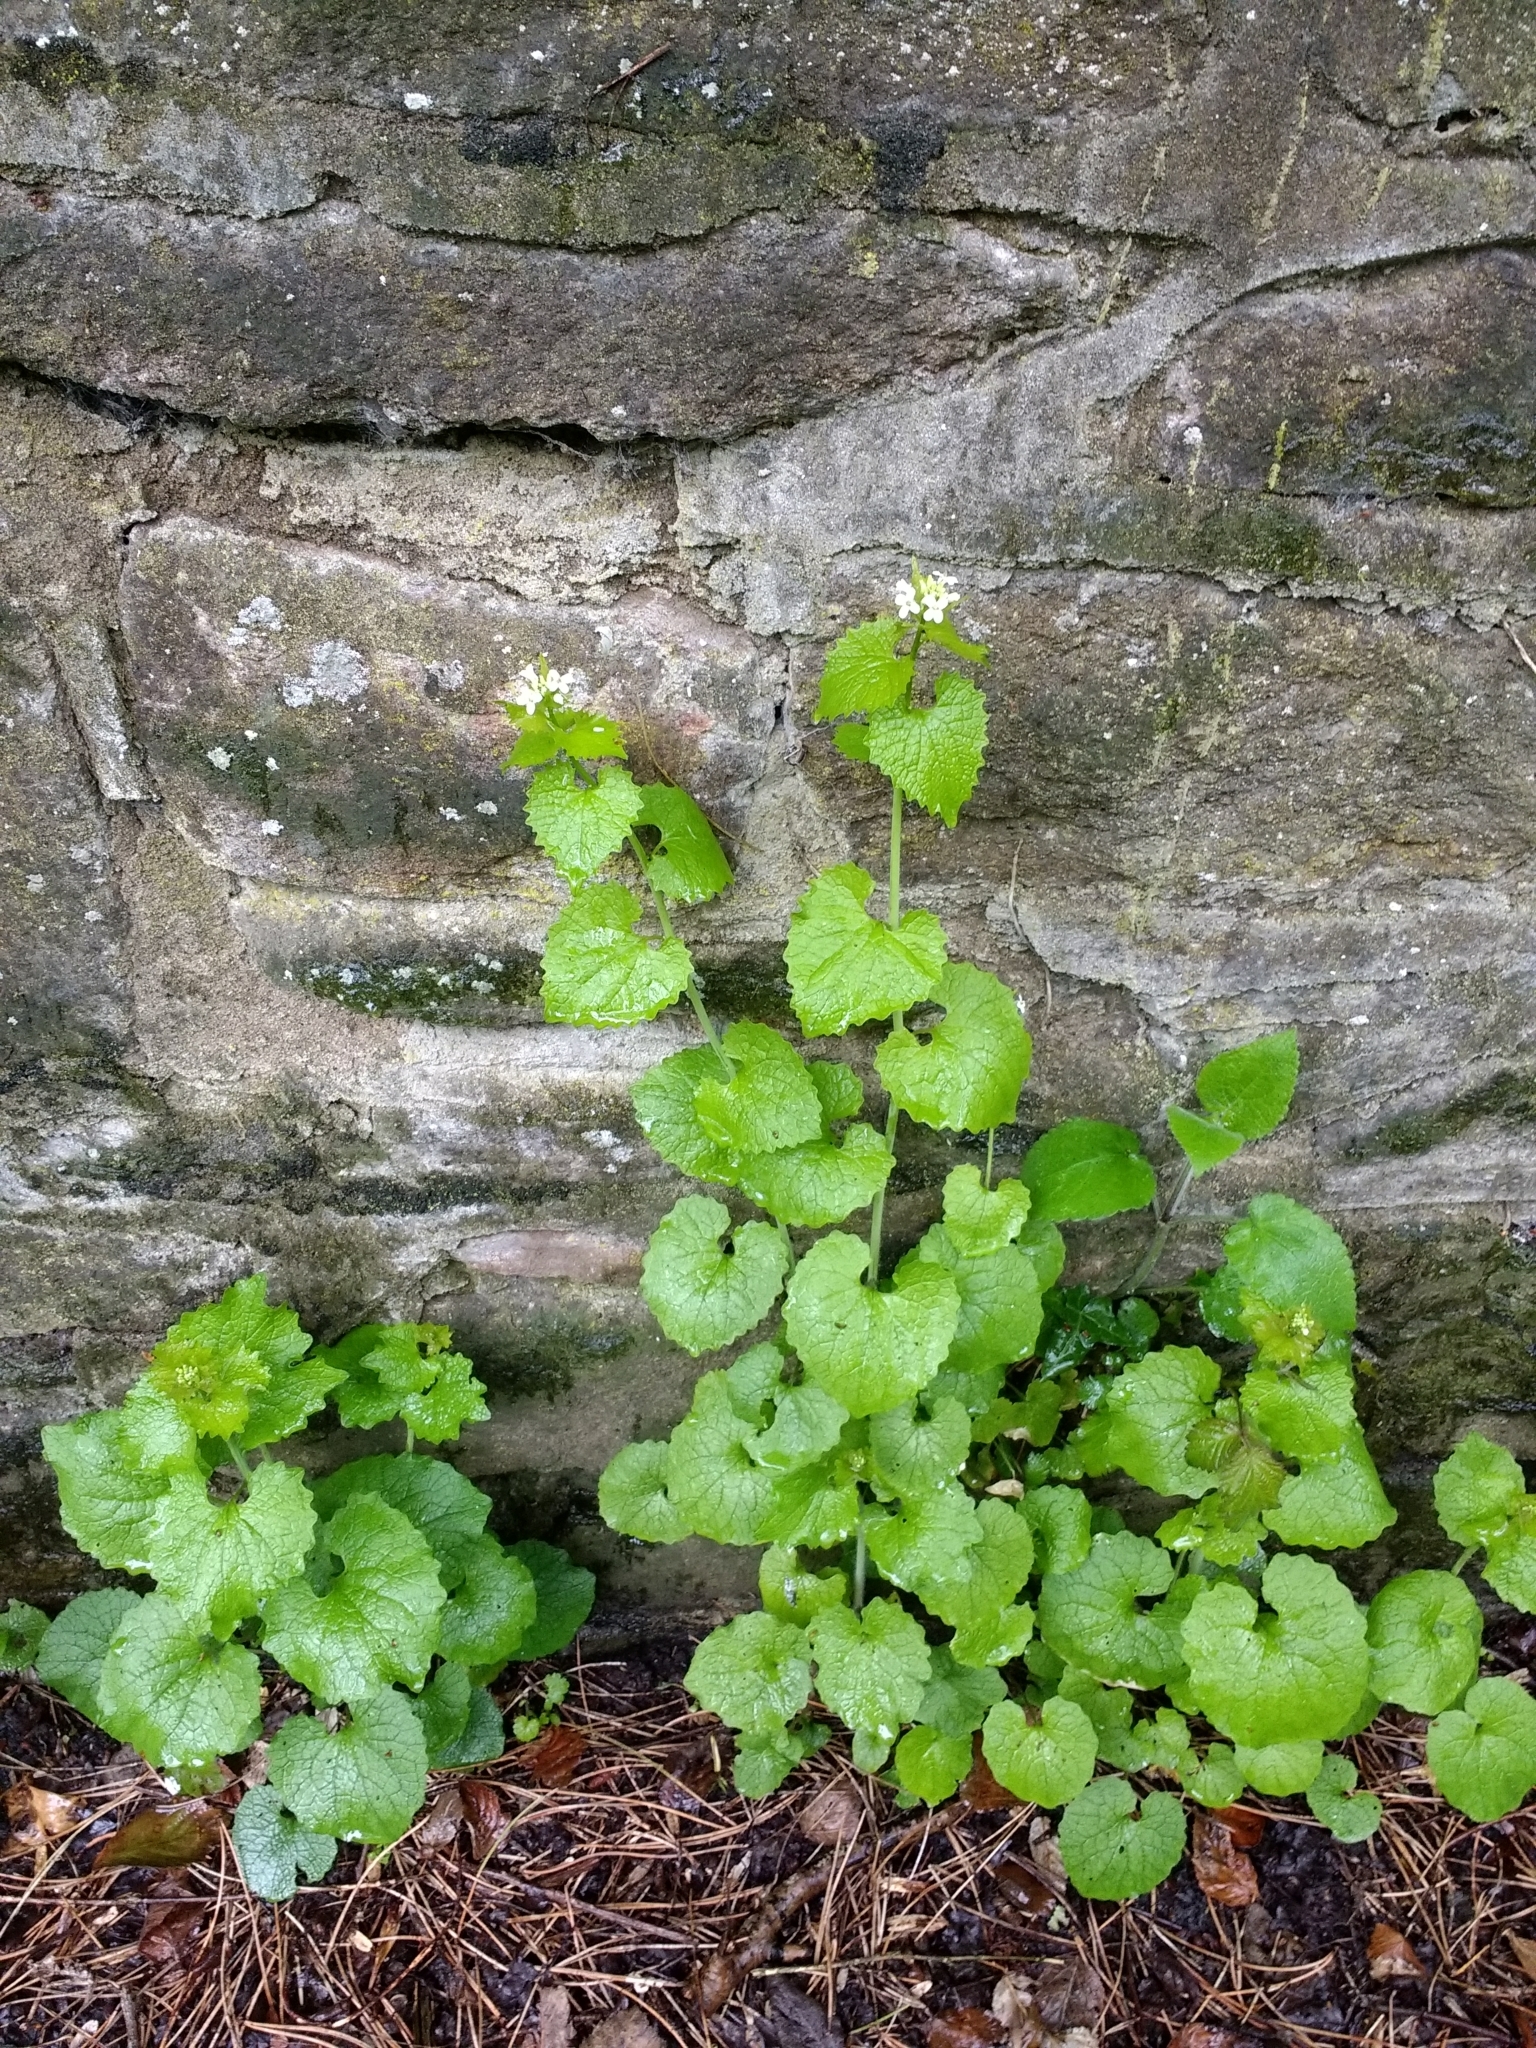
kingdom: Plantae
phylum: Tracheophyta
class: Magnoliopsida
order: Brassicales
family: Brassicaceae
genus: Alliaria
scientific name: Alliaria petiolata
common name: Garlic mustard
